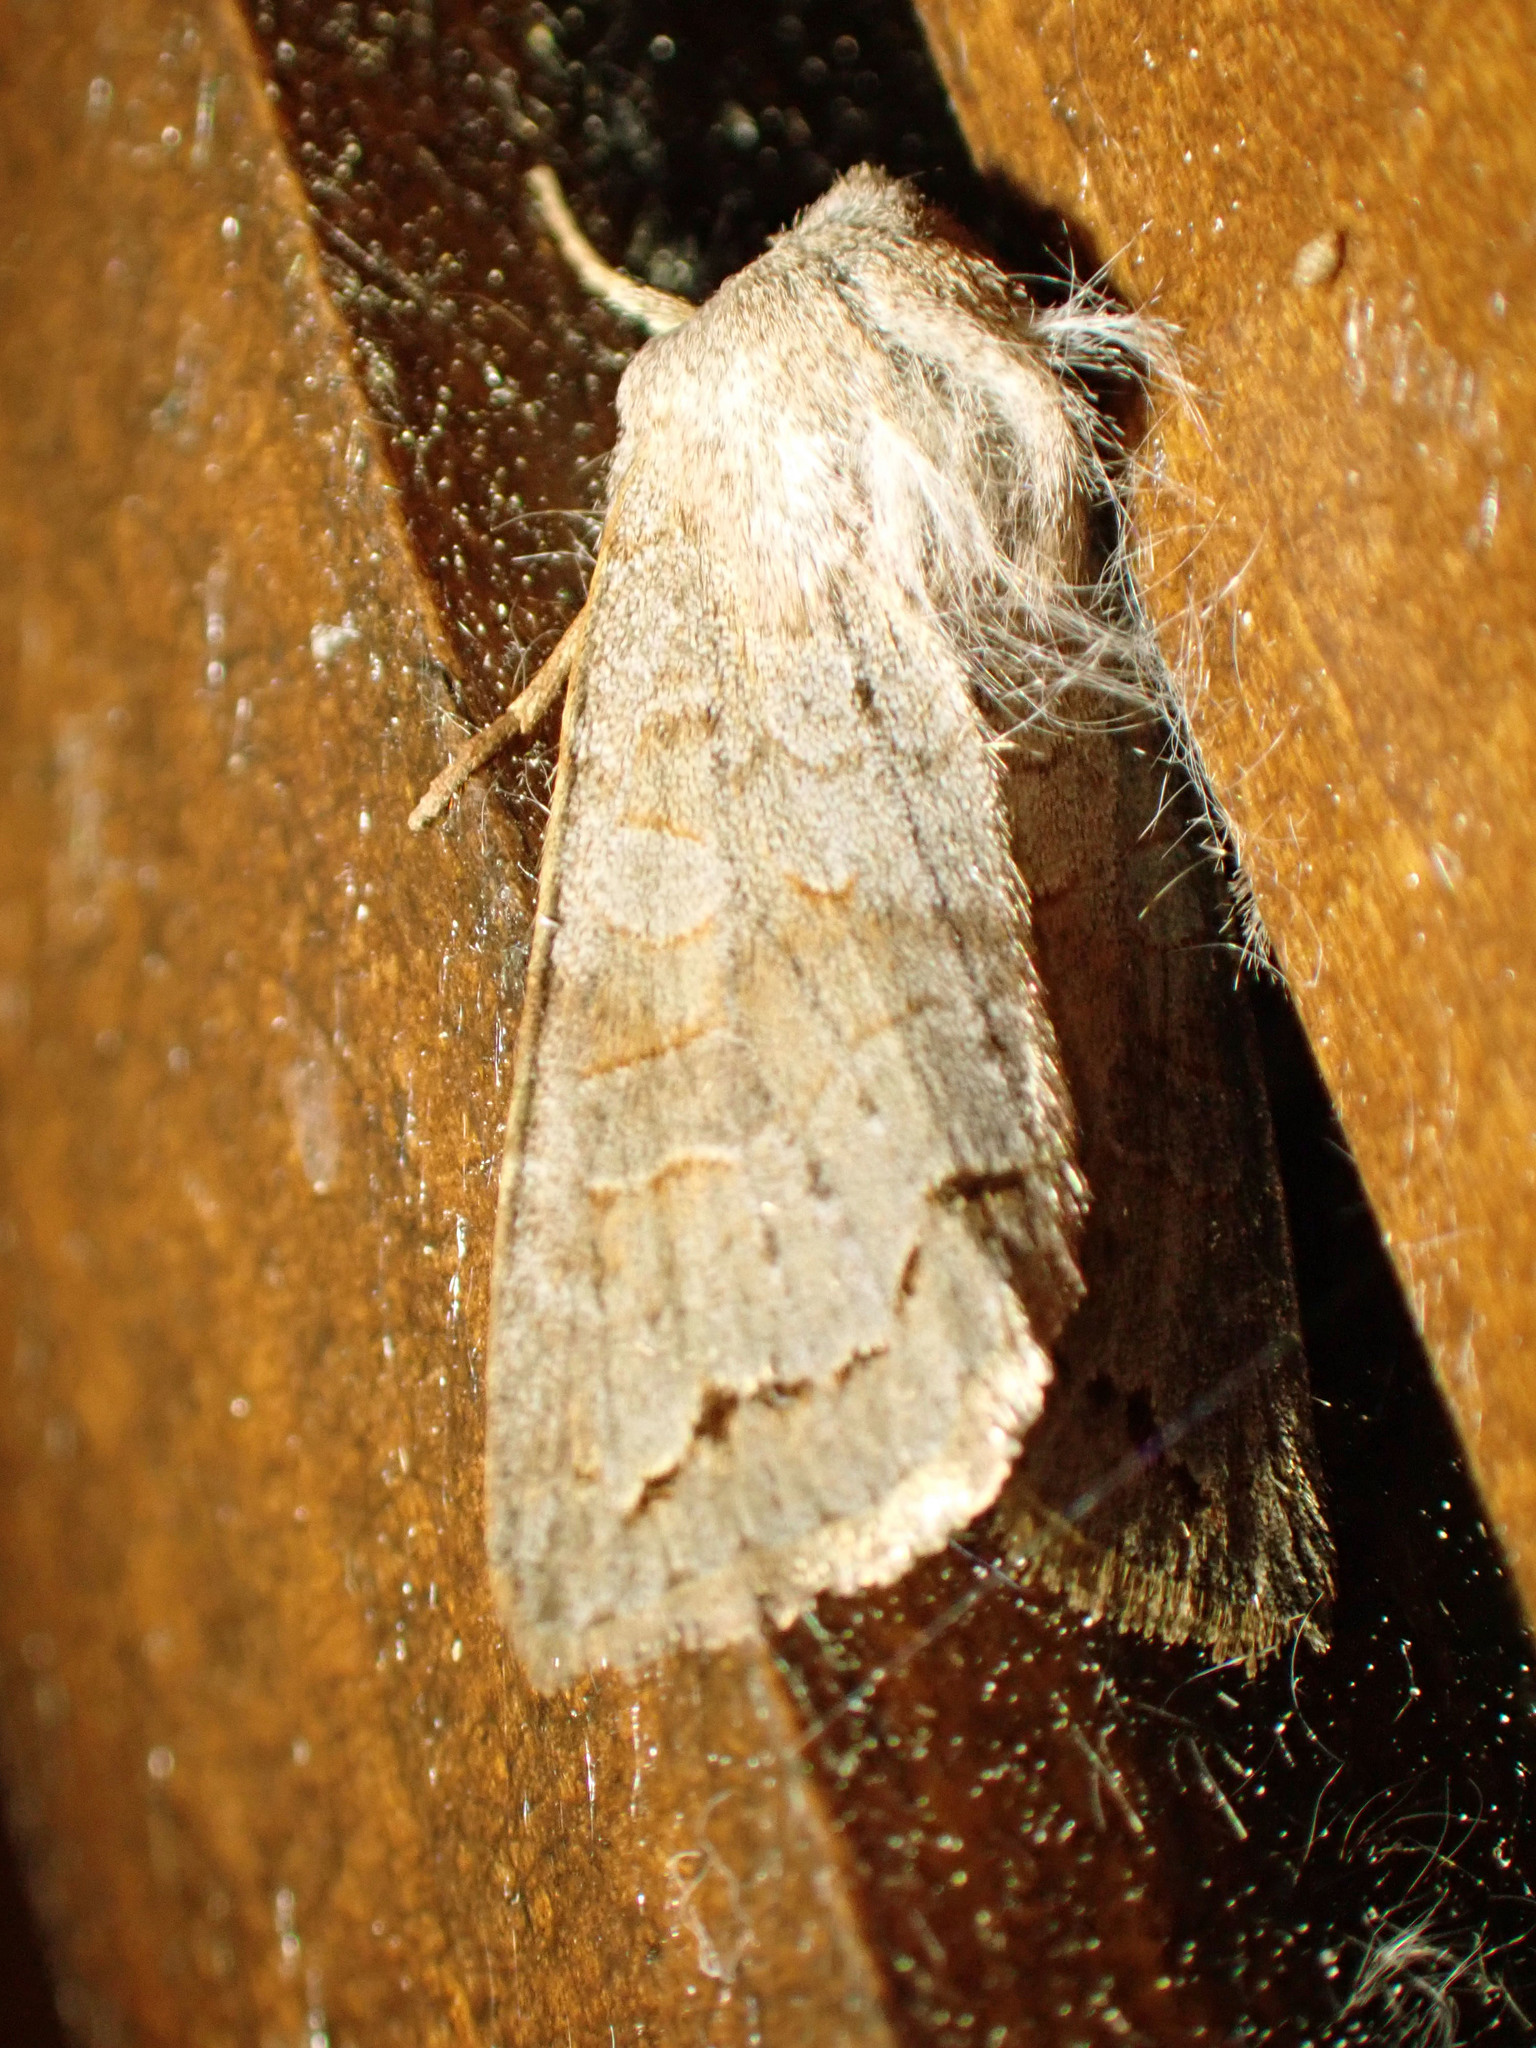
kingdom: Animalia
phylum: Arthropoda
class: Insecta
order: Lepidoptera
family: Noctuidae
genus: Orthosia
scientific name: Orthosia revicta
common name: Rusty whitesided caterpillar
